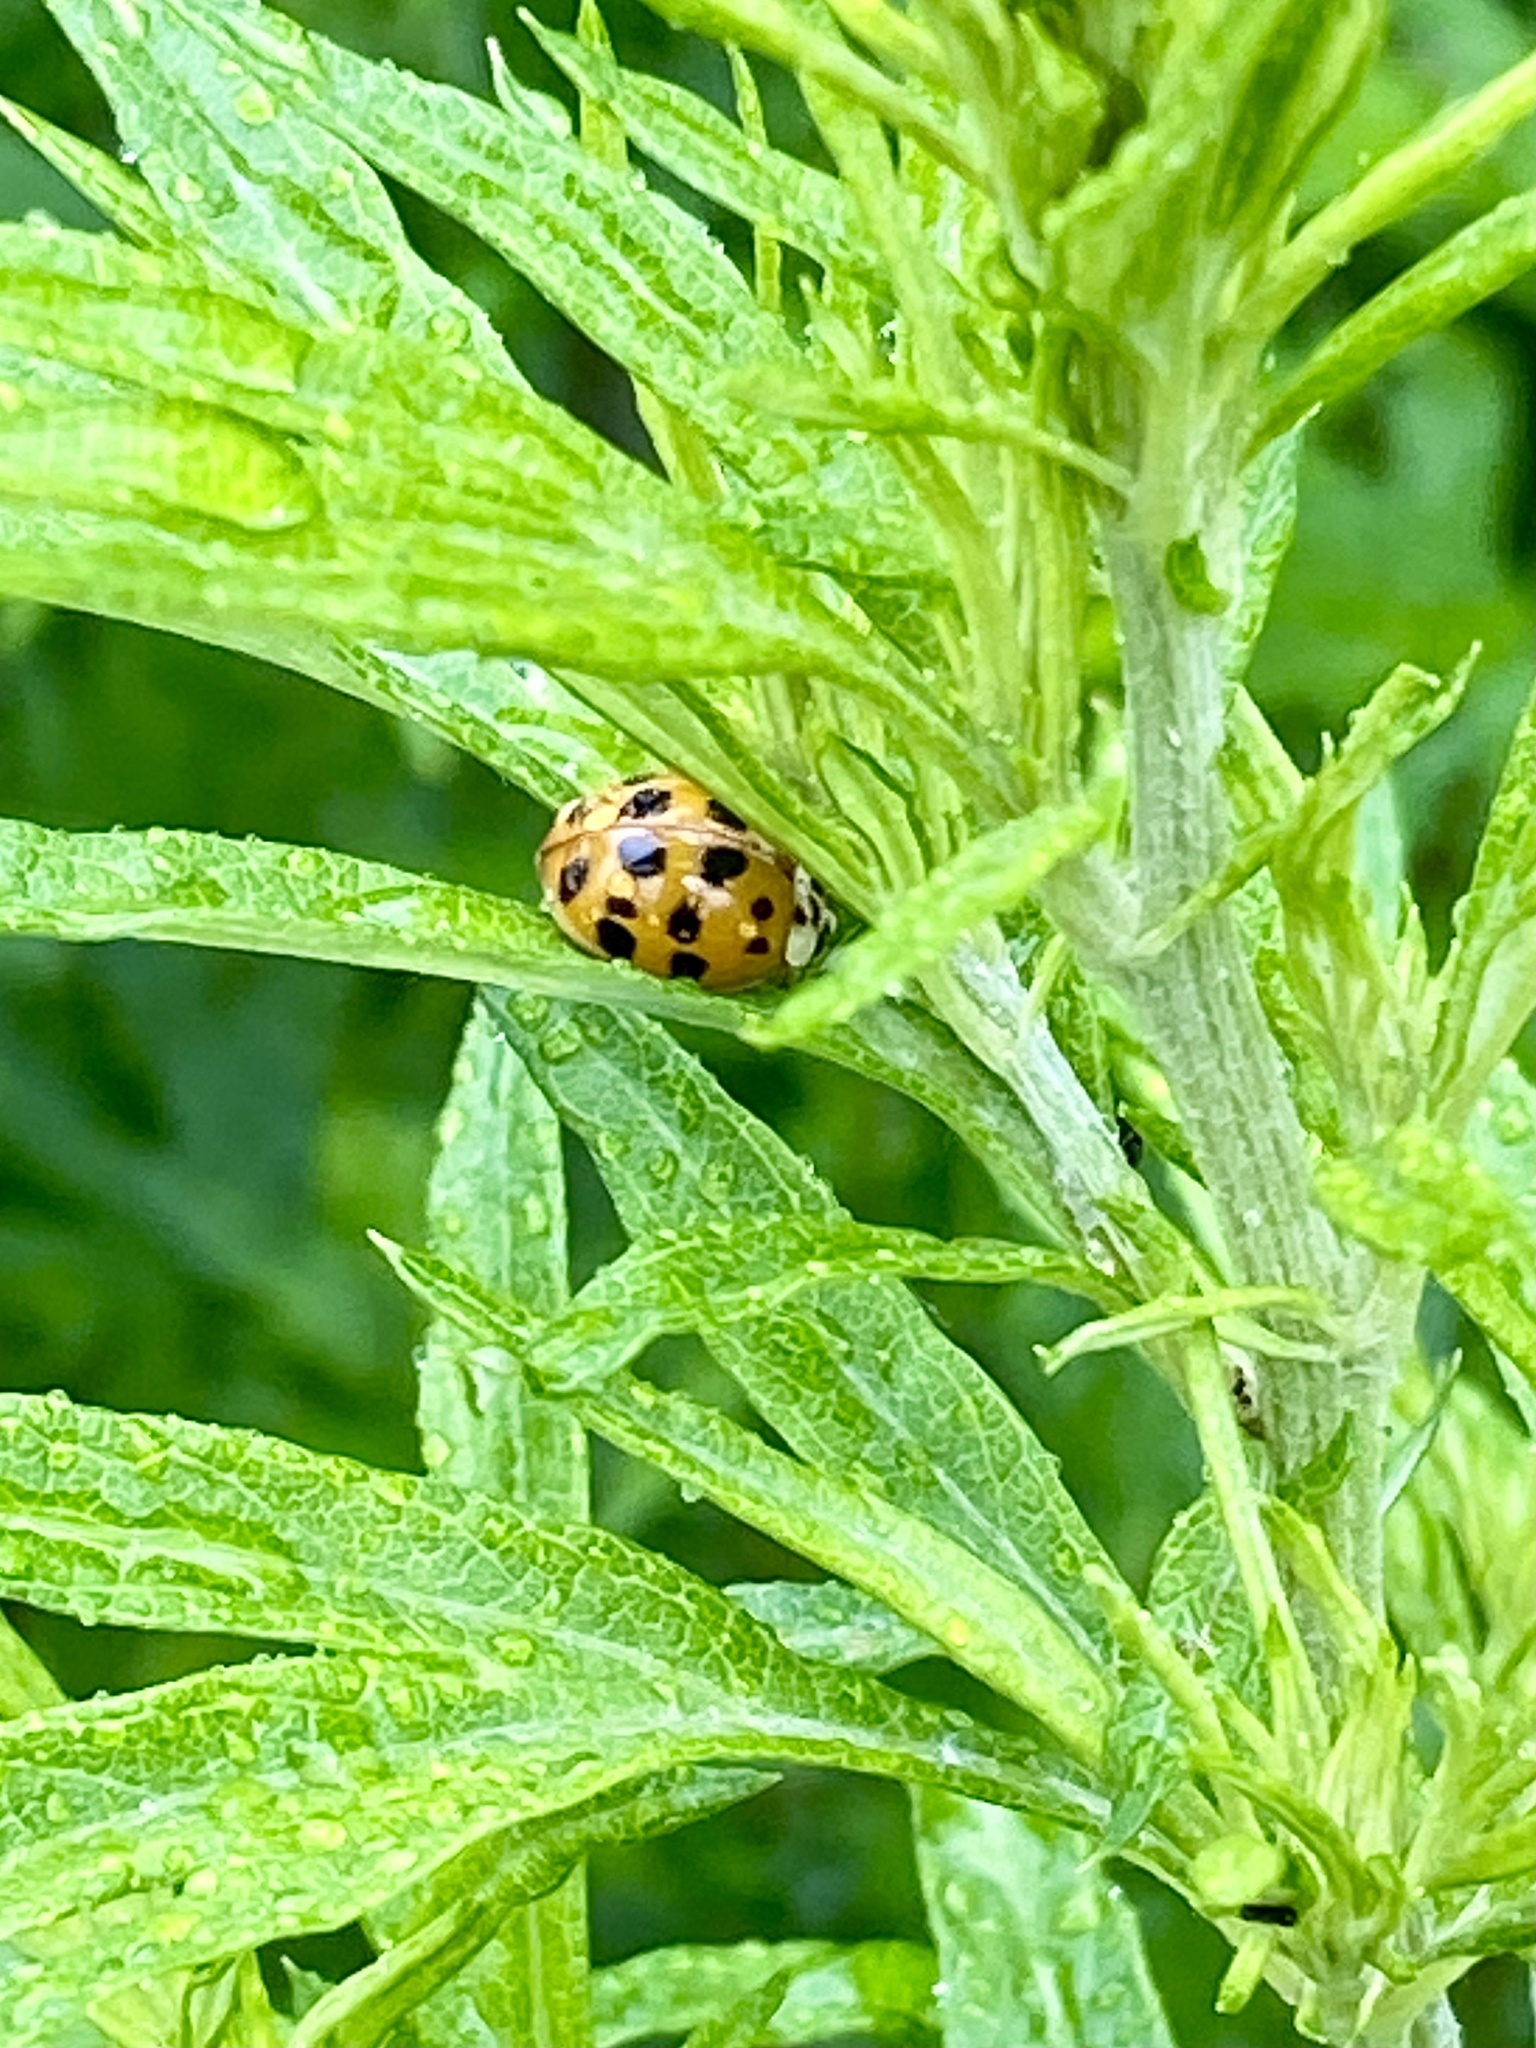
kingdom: Animalia
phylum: Arthropoda
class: Insecta
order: Coleoptera
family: Coccinellidae
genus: Harmonia
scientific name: Harmonia axyridis
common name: Harlequin ladybird
